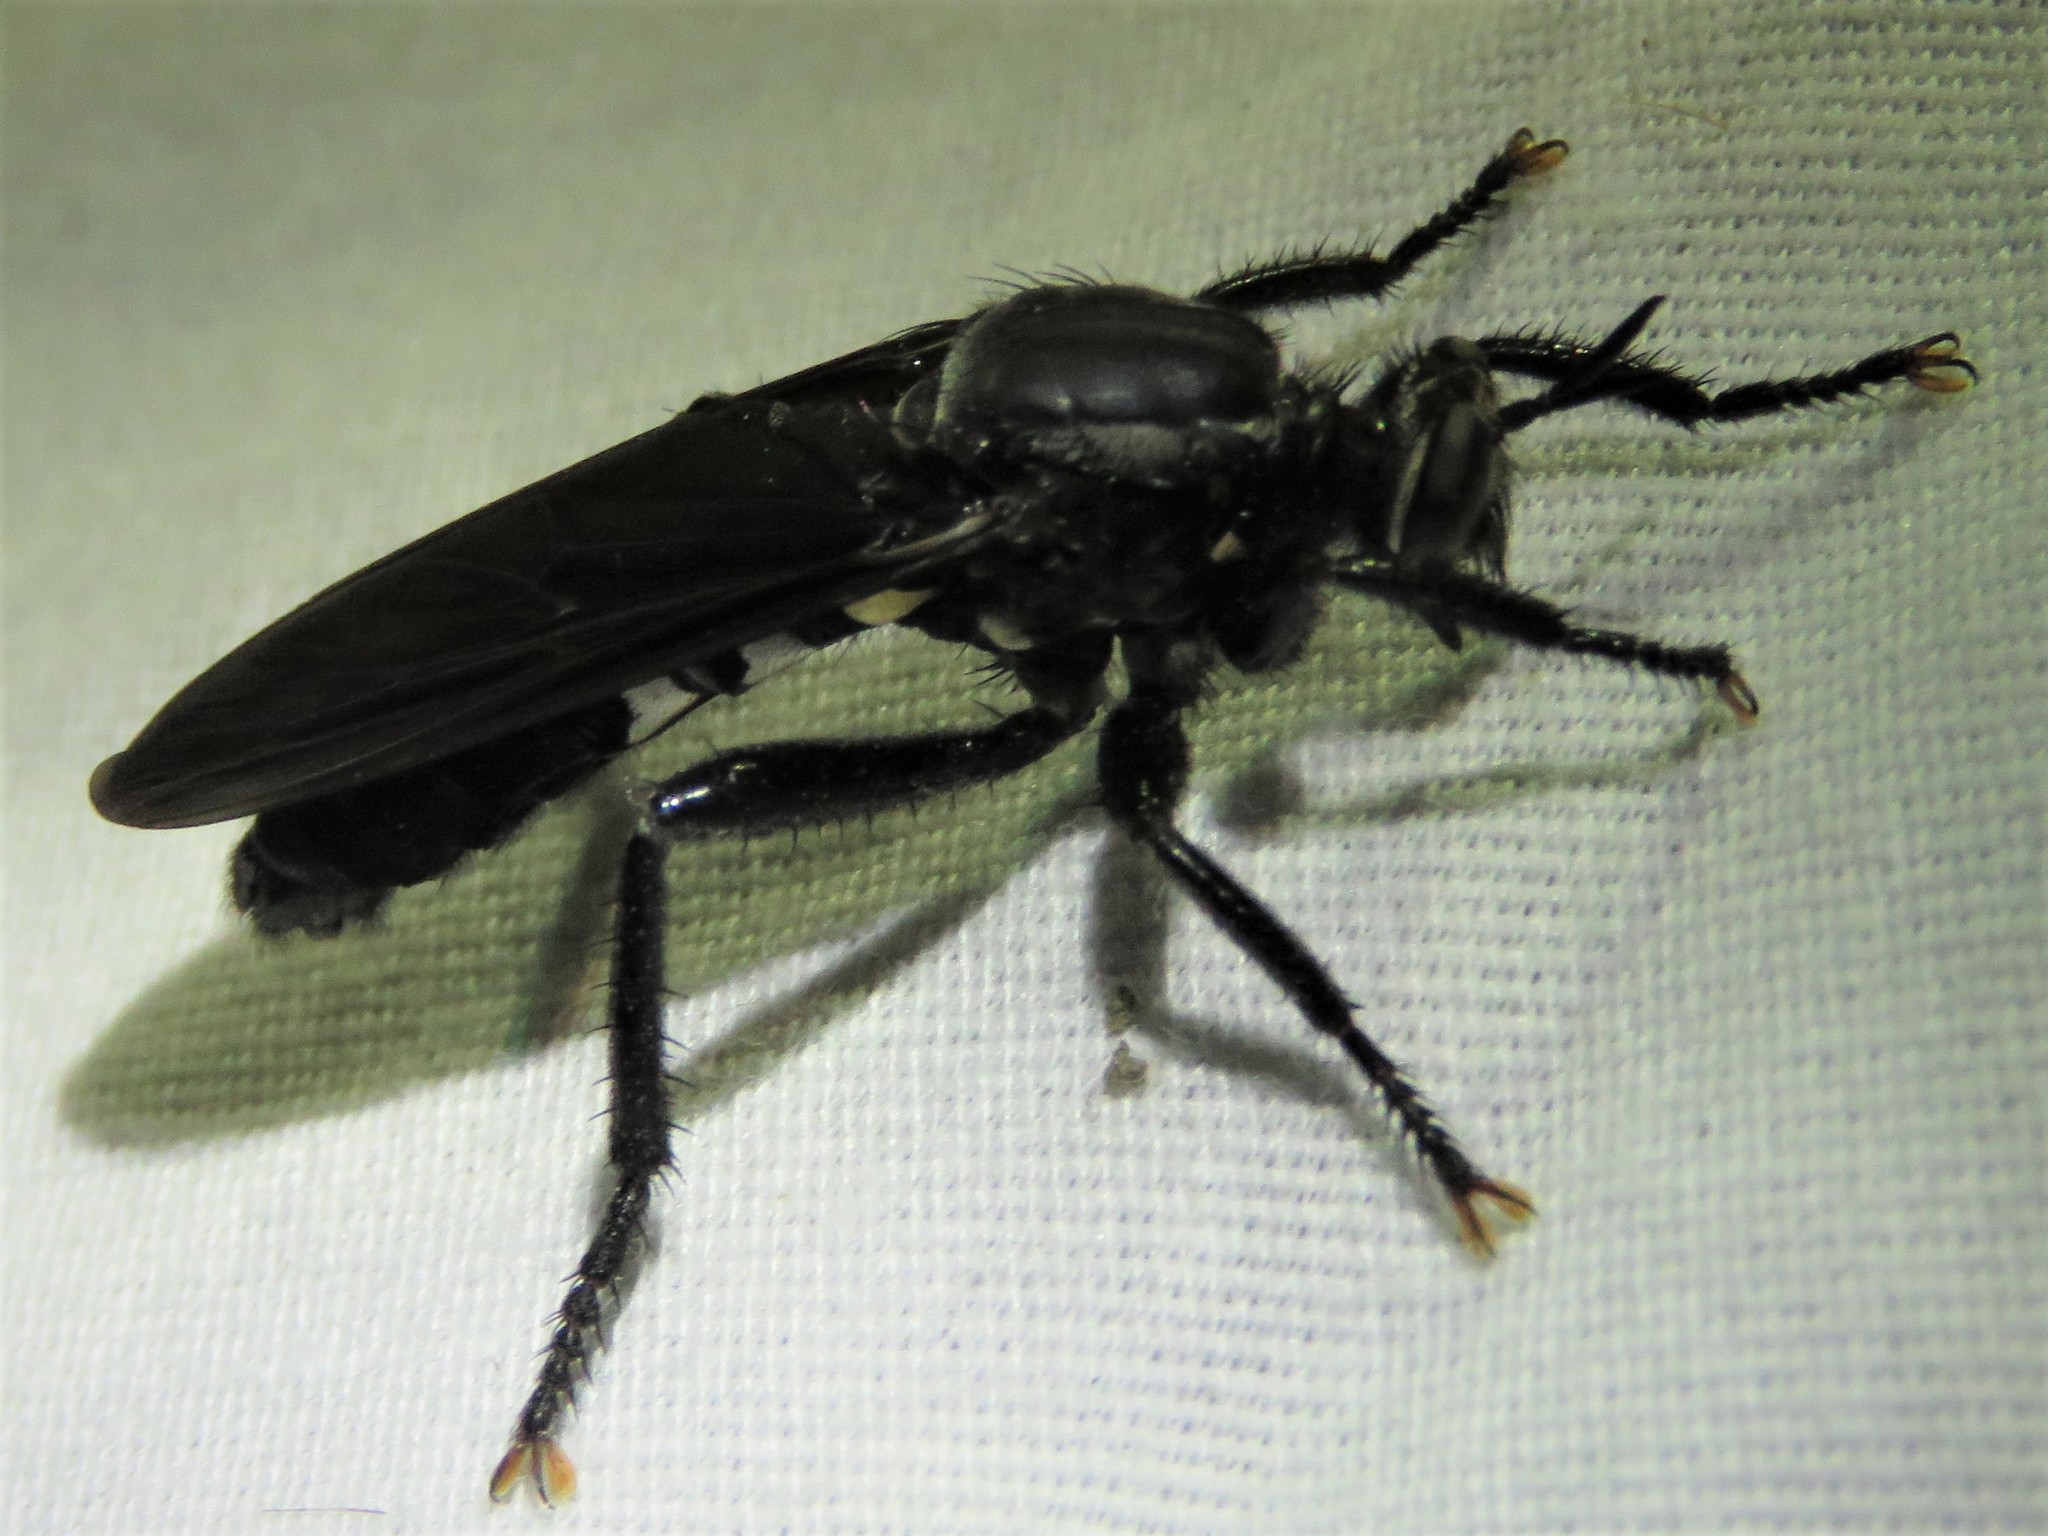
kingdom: Animalia
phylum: Arthropoda
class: Insecta
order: Diptera
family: Asilidae
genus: Prolepsis
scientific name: Prolepsis tristis
